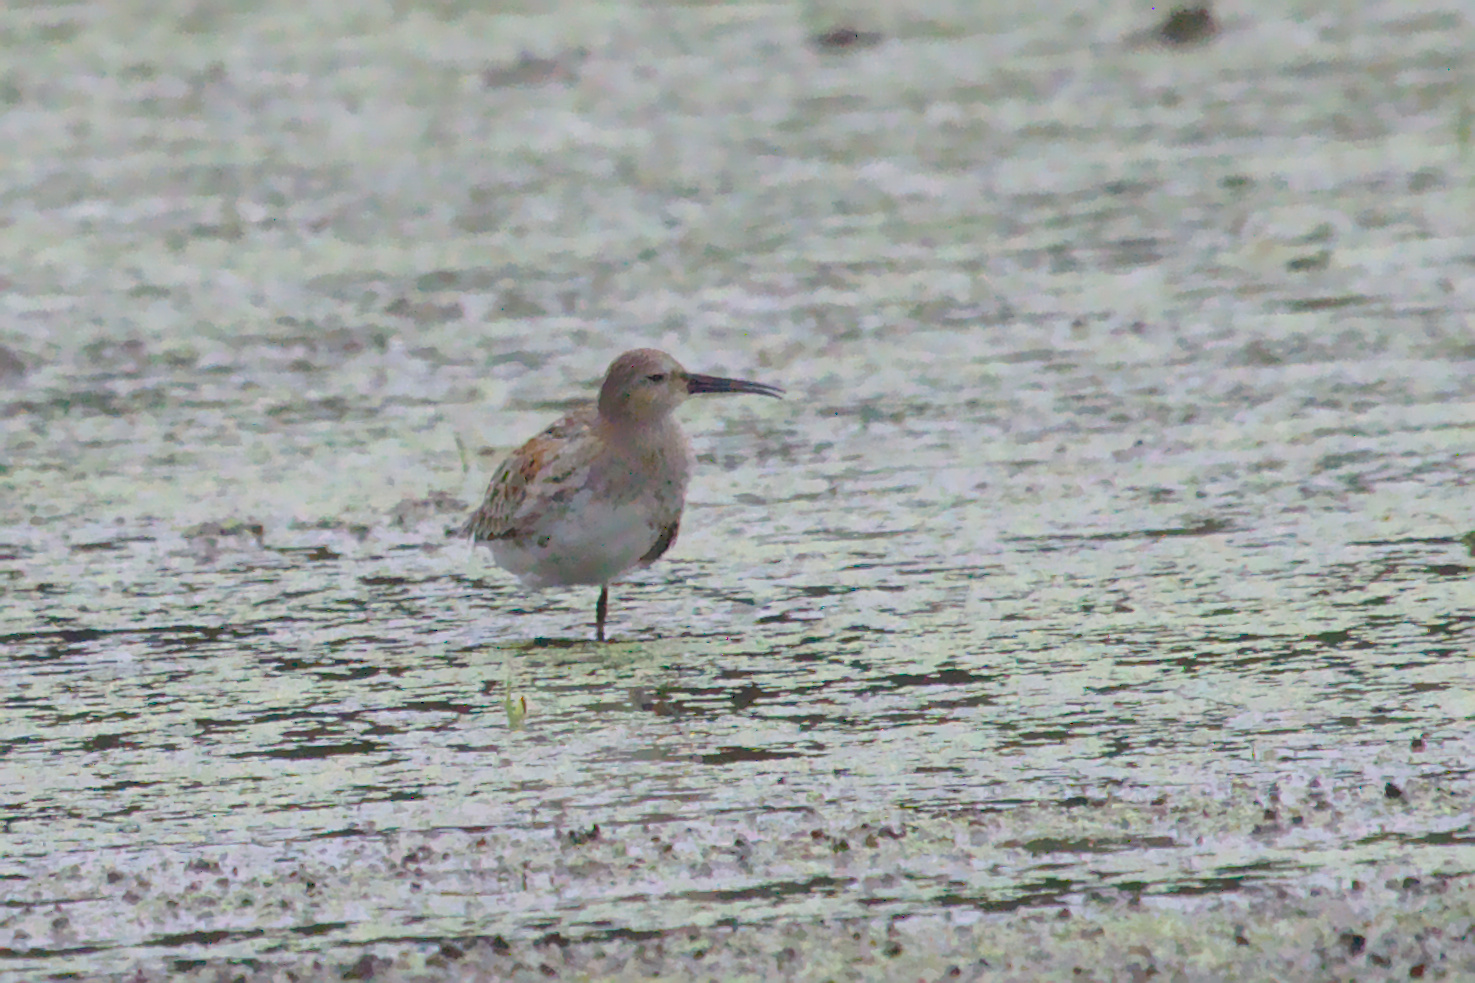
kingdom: Animalia
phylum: Chordata
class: Aves
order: Charadriiformes
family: Scolopacidae
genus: Calidris
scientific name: Calidris alpina
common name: Dunlin
